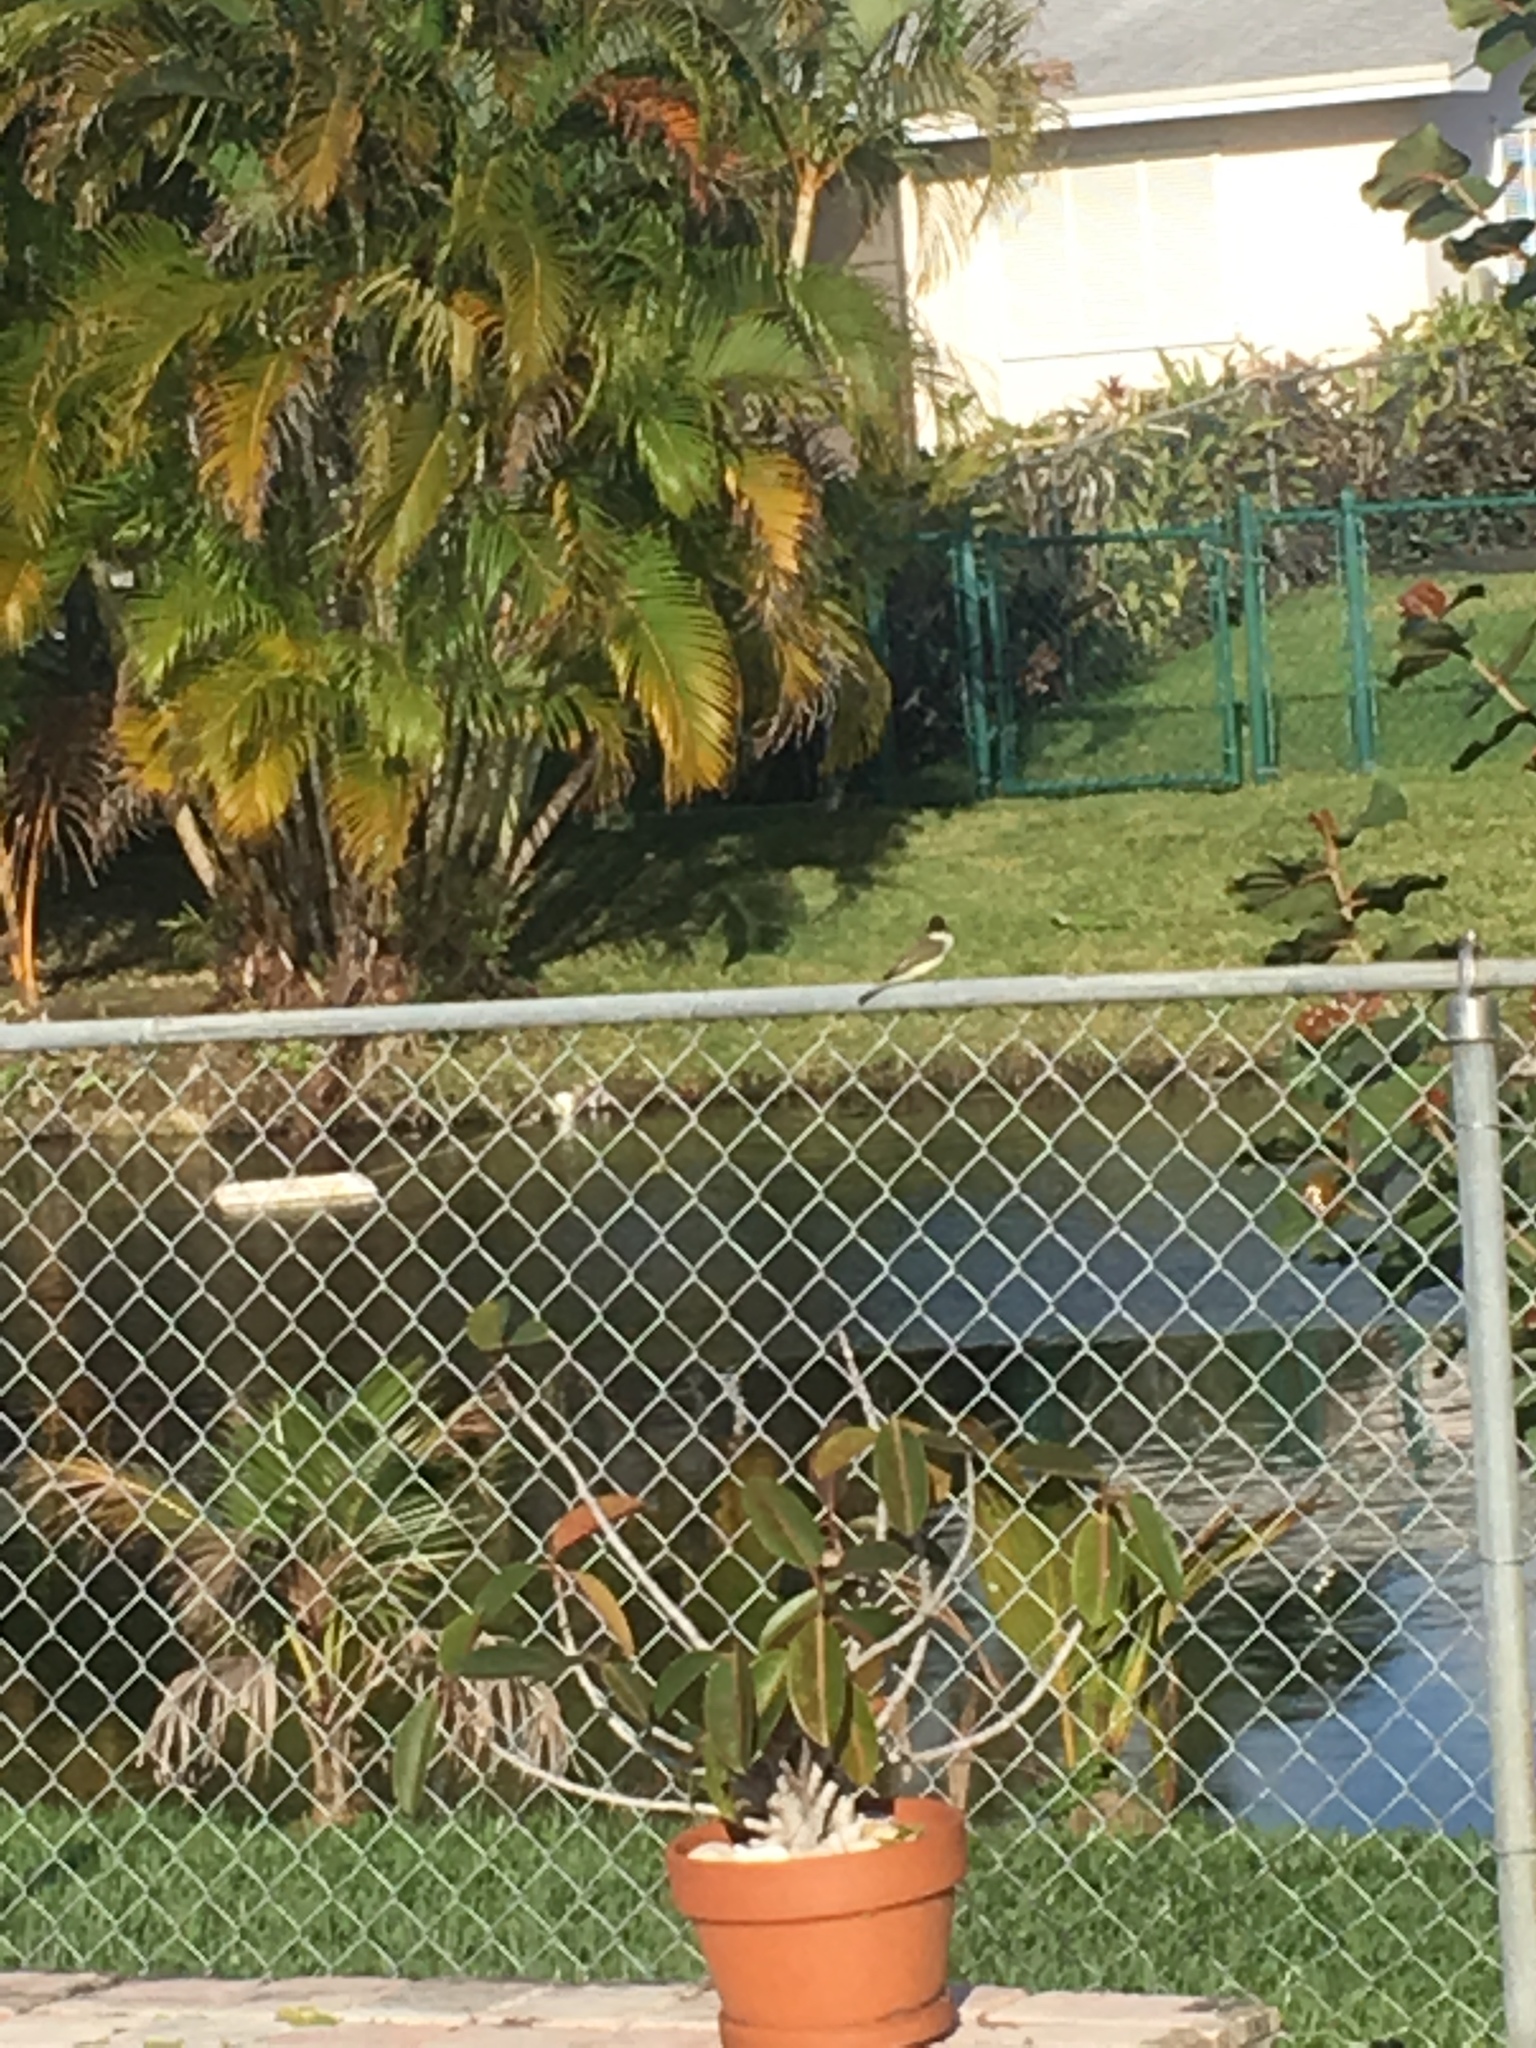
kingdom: Animalia
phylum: Chordata
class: Aves
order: Passeriformes
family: Tyrannidae
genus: Sayornis
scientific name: Sayornis phoebe
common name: Eastern phoebe
